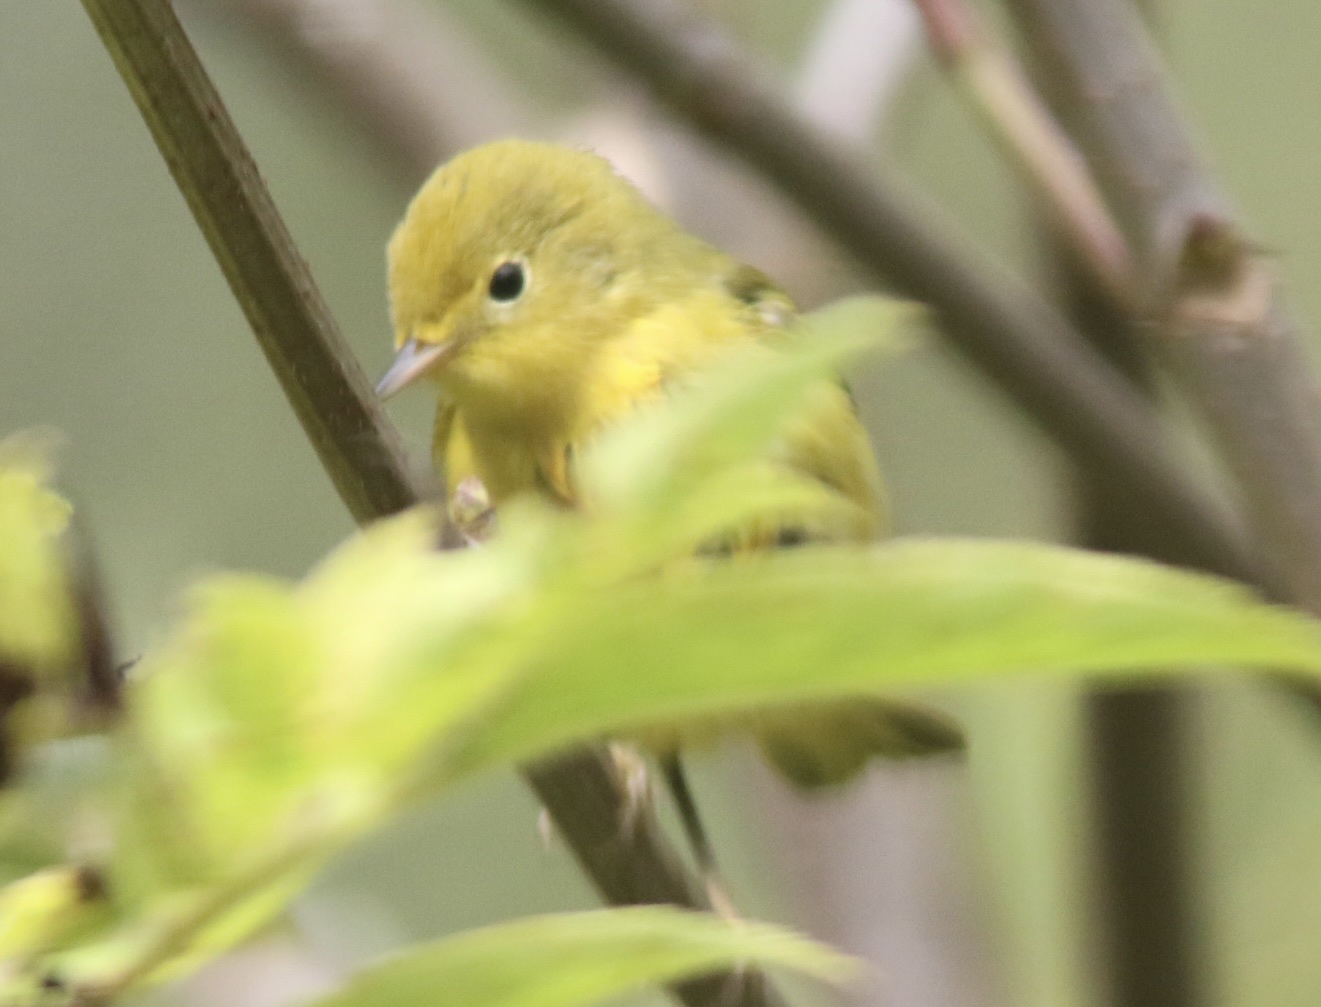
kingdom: Animalia
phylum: Chordata
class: Aves
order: Passeriformes
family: Parulidae
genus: Setophaga
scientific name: Setophaga petechia
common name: Yellow warbler
